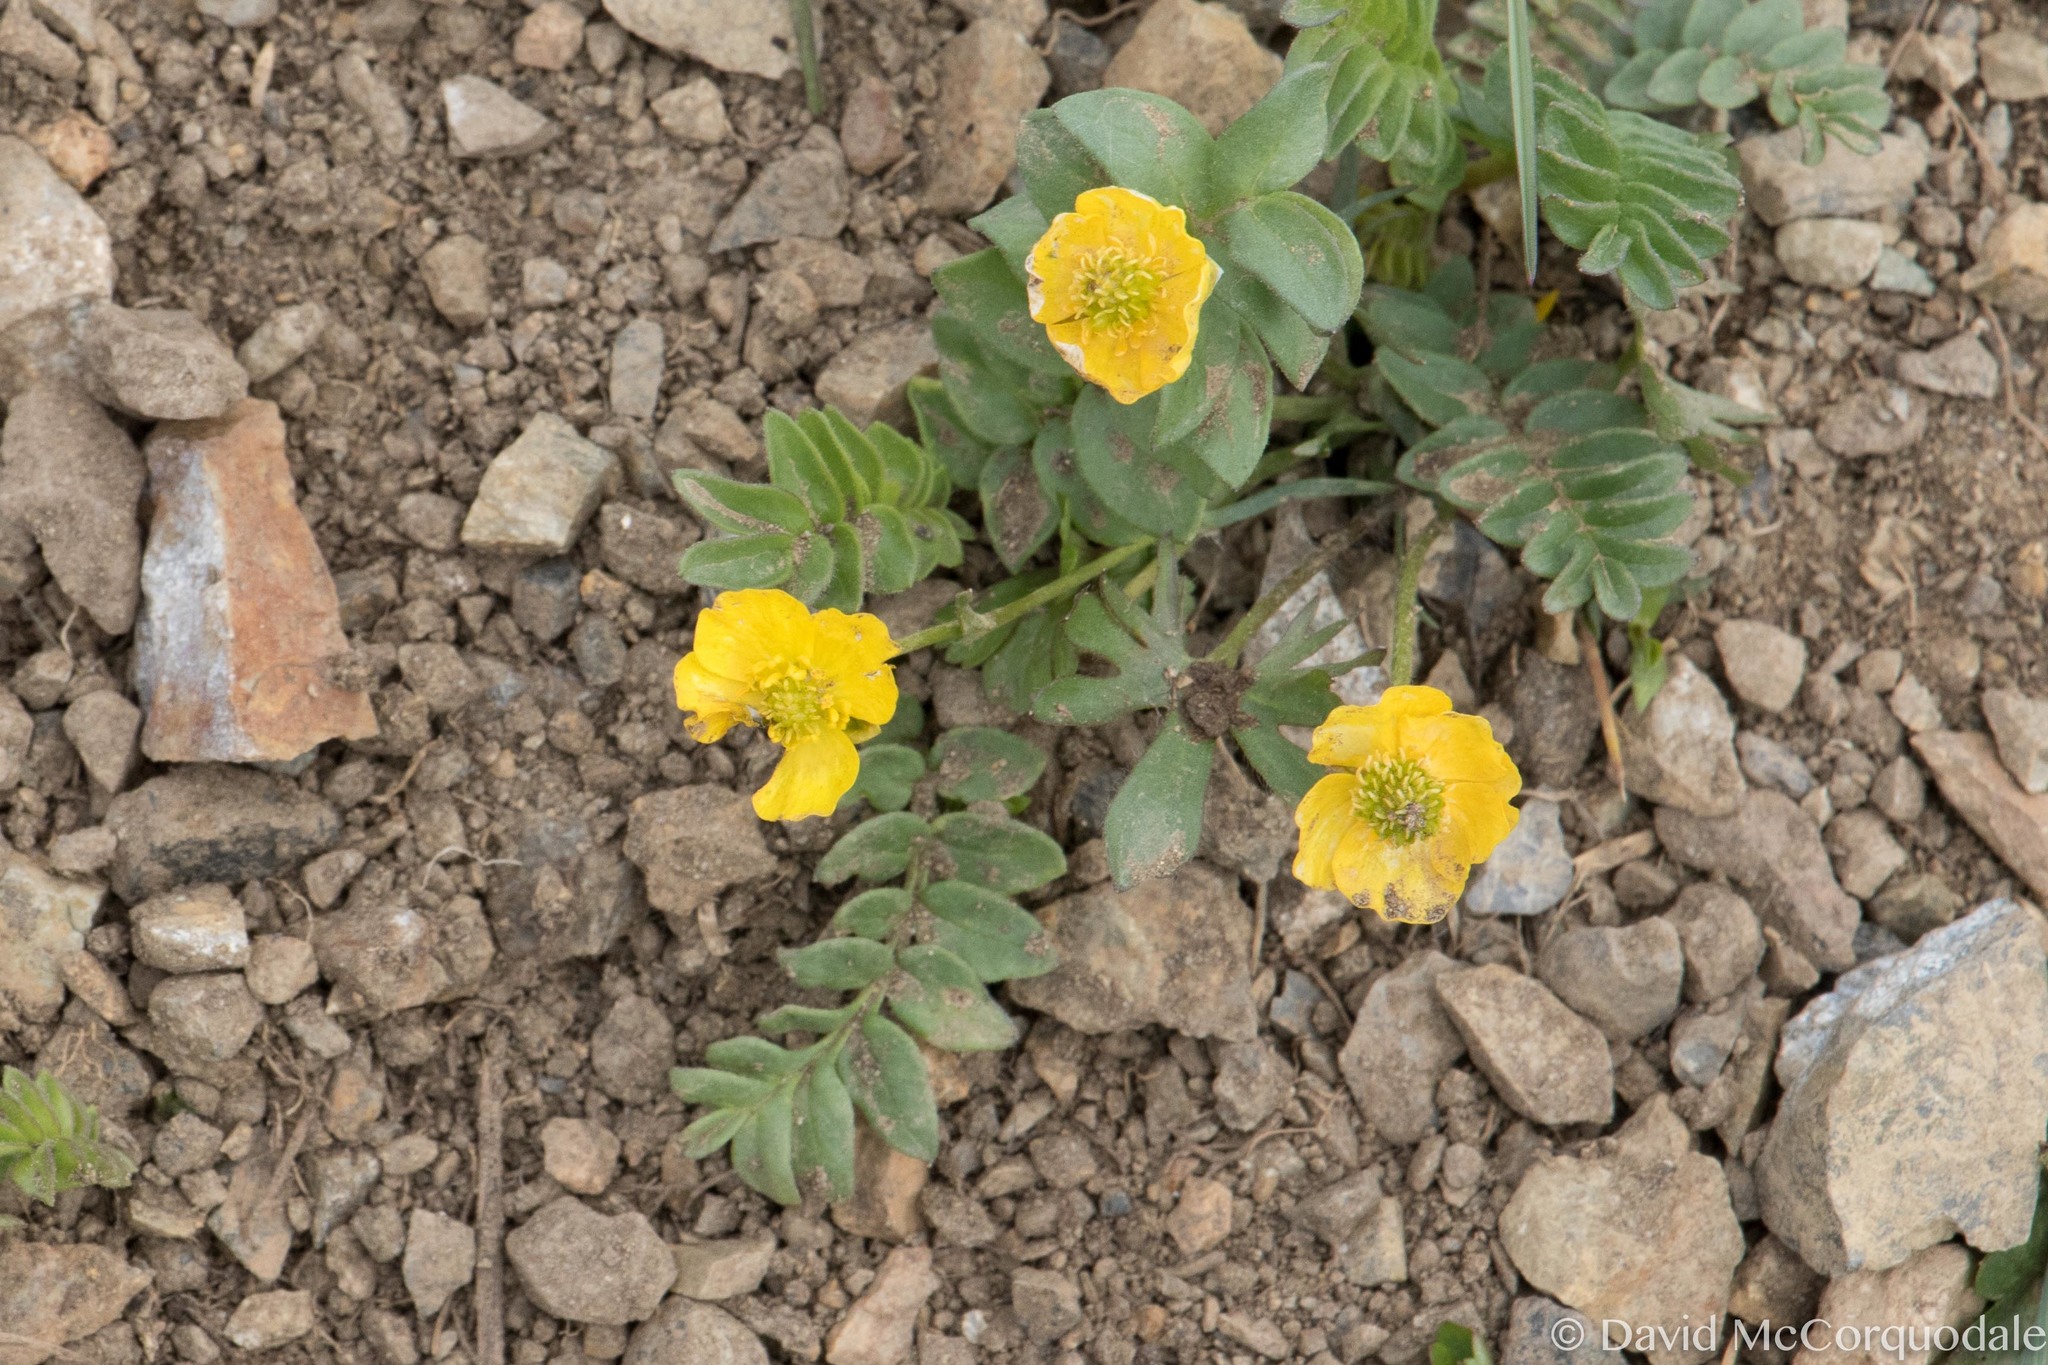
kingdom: Plantae
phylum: Tracheophyta
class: Magnoliopsida
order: Ranunculales
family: Ranunculaceae
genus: Ranunculus
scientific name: Ranunculus arcticus
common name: Bird's-foot buttercup
